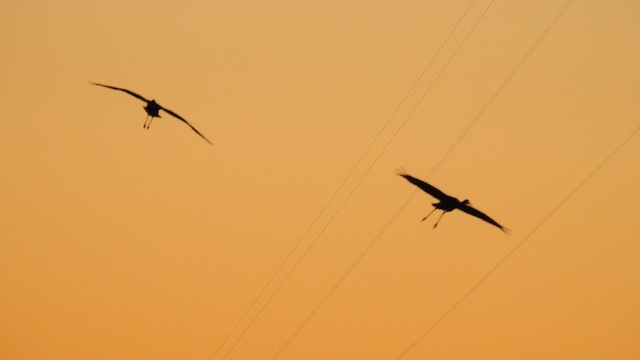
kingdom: Animalia
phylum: Chordata
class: Aves
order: Gruiformes
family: Gruidae
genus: Grus
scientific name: Grus canadensis
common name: Sandhill crane
